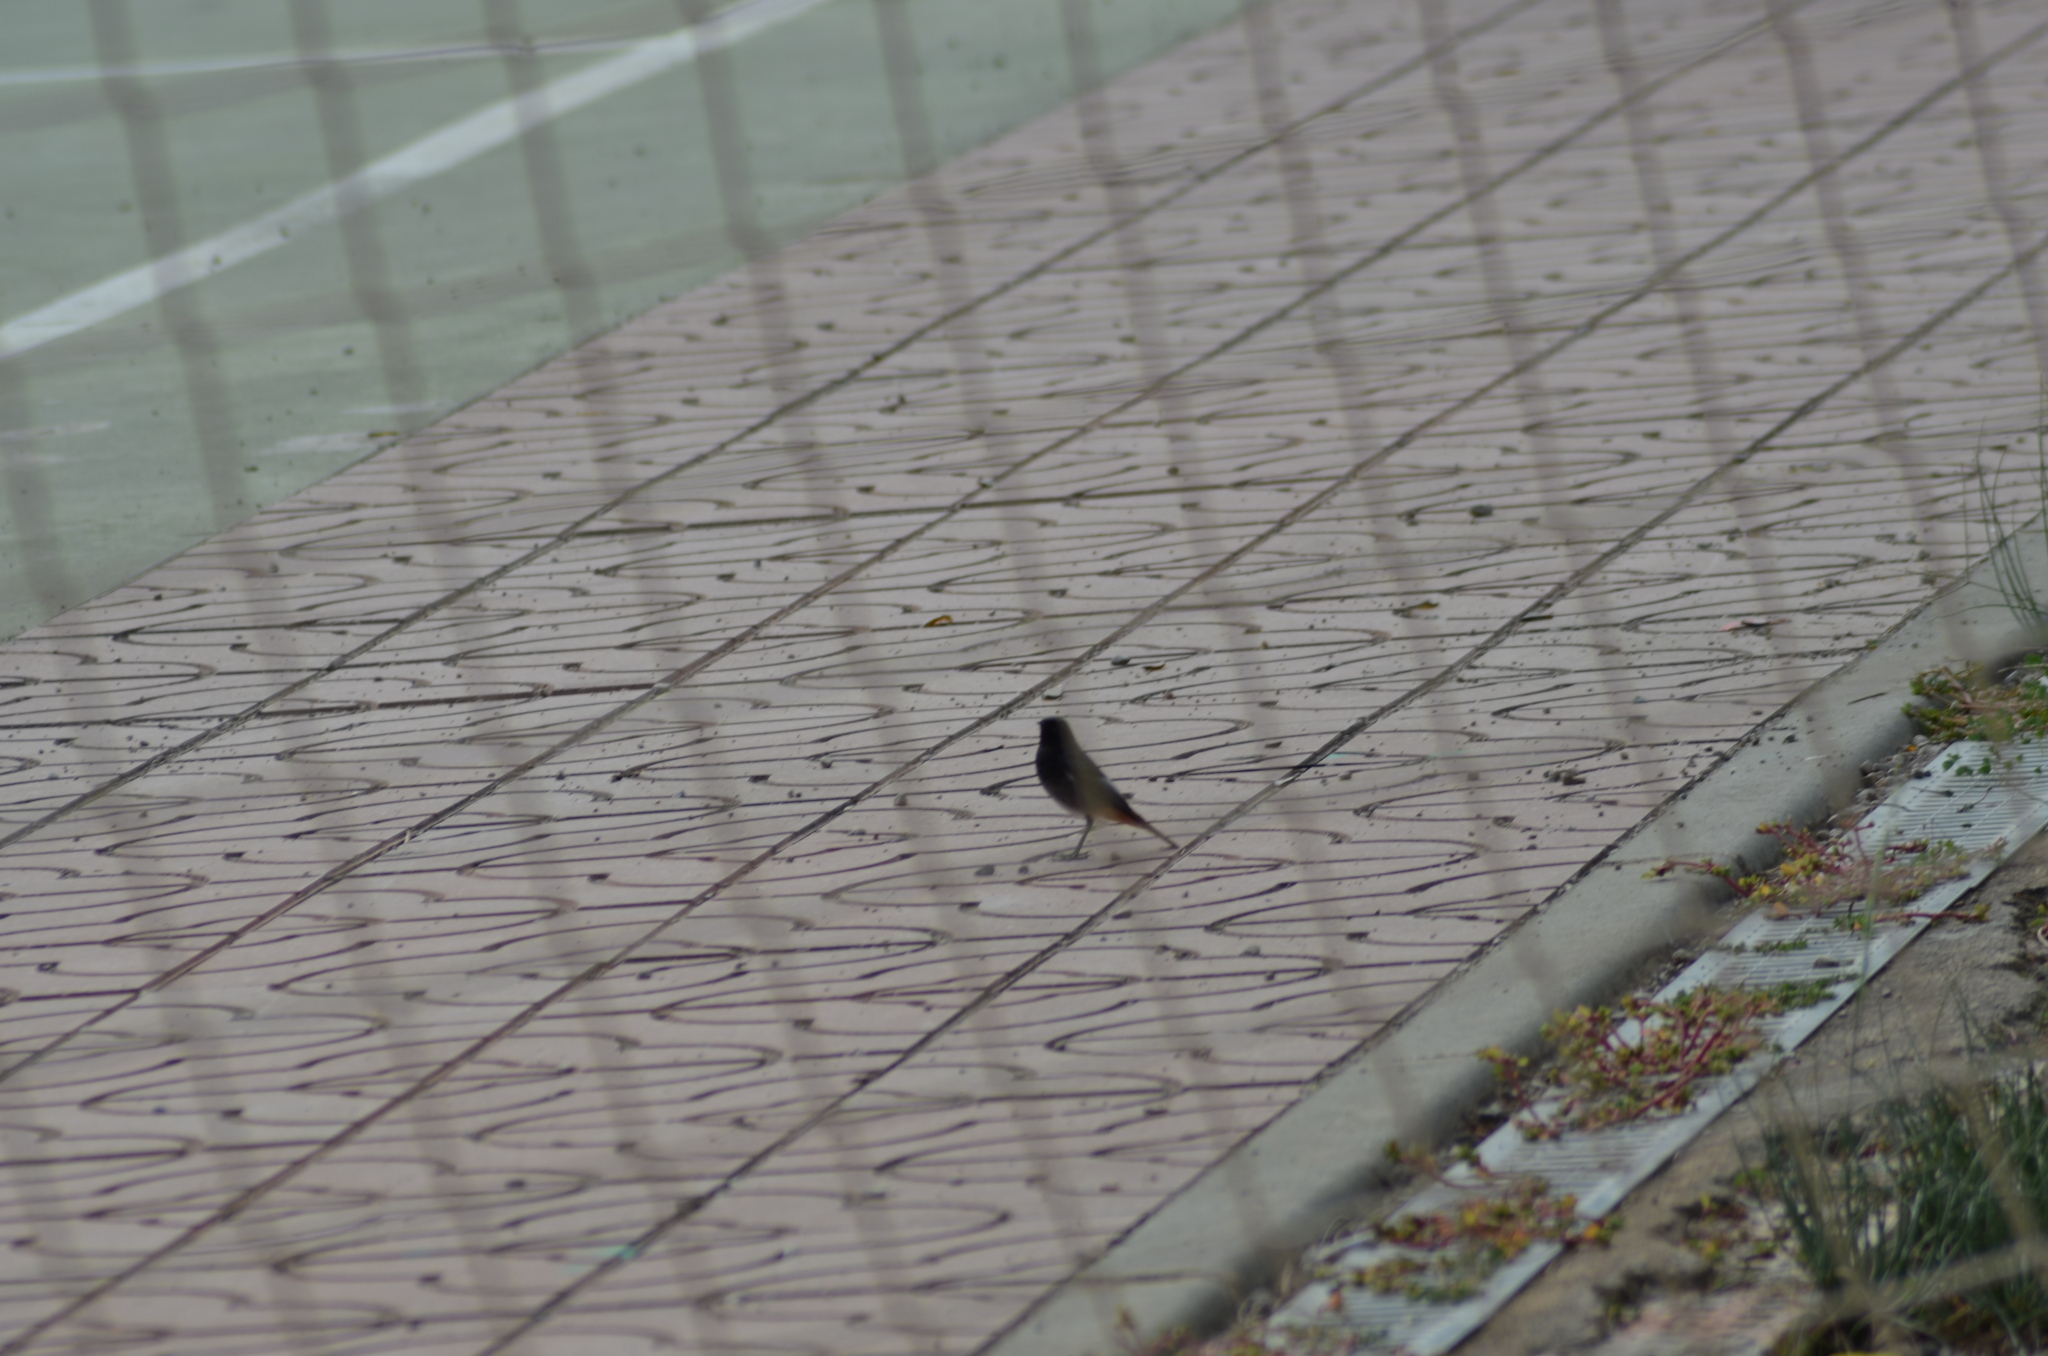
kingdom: Animalia
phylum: Chordata
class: Aves
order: Passeriformes
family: Muscicapidae
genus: Phoenicurus
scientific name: Phoenicurus ochruros
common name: Black redstart
